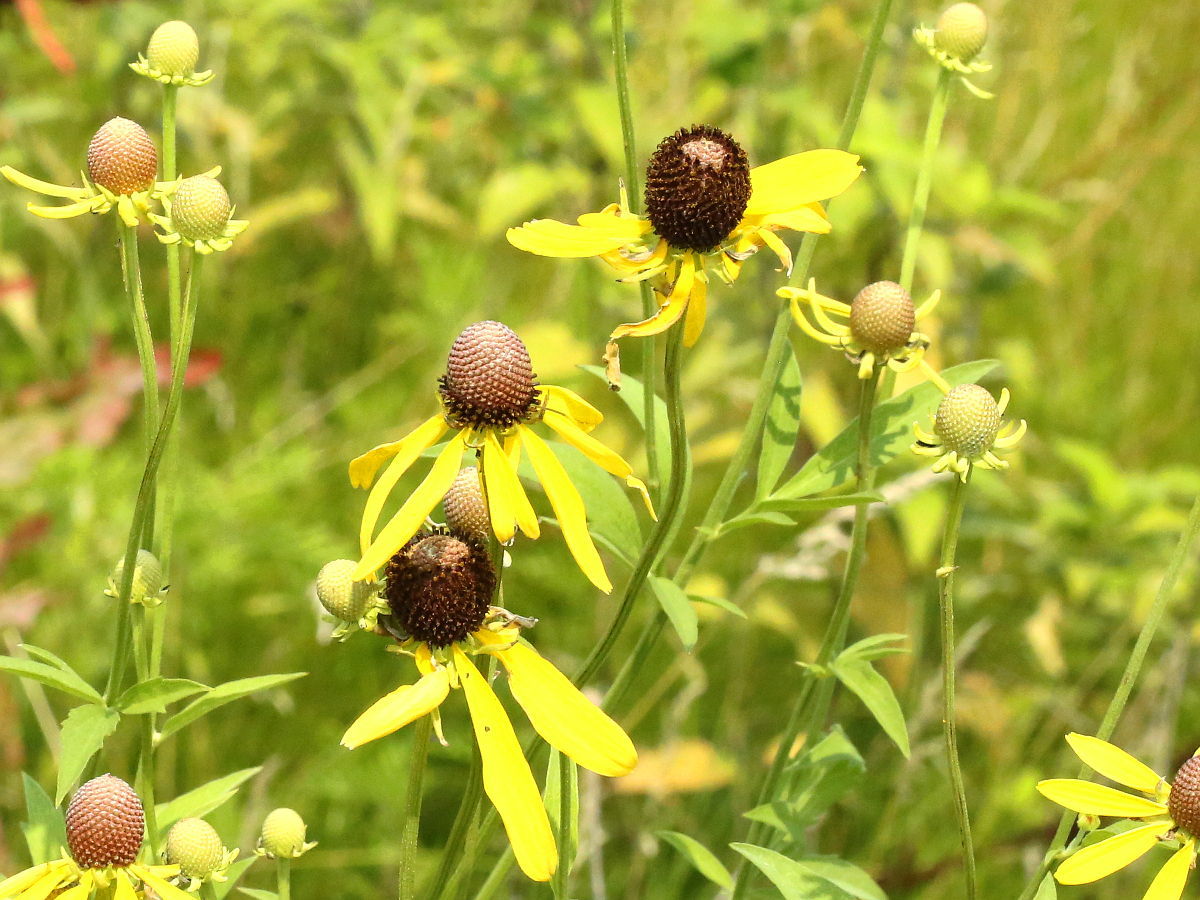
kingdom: Plantae
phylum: Tracheophyta
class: Magnoliopsida
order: Asterales
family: Asteraceae
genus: Ratibida
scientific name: Ratibida pinnata
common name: Drooping prairie-coneflower
